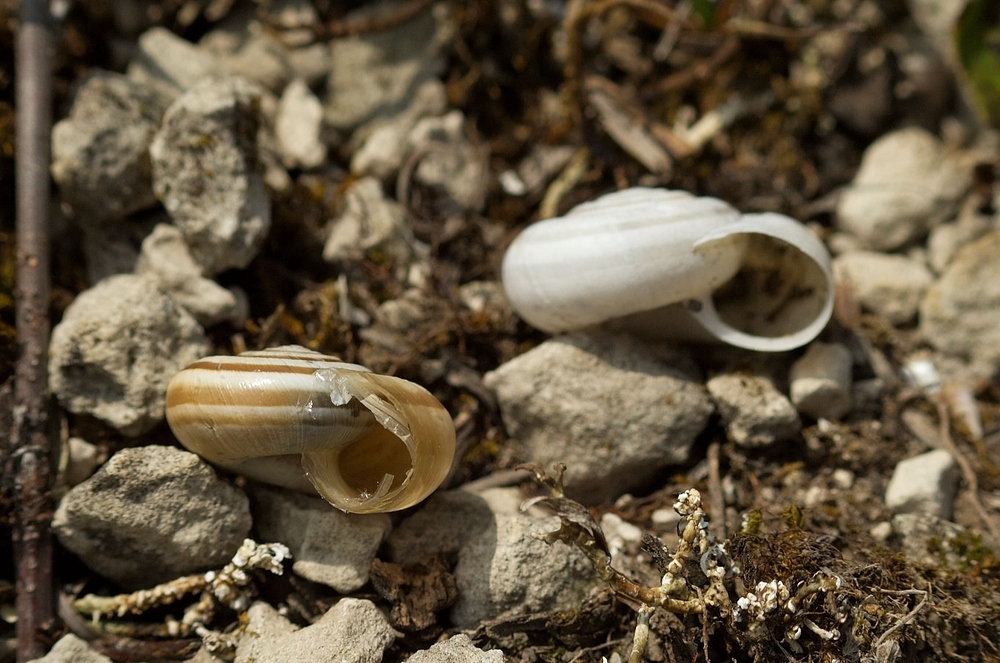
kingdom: Animalia
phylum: Mollusca
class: Gastropoda
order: Stylommatophora
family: Geomitridae
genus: Helicella
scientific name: Helicella itala
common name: Heath snail
